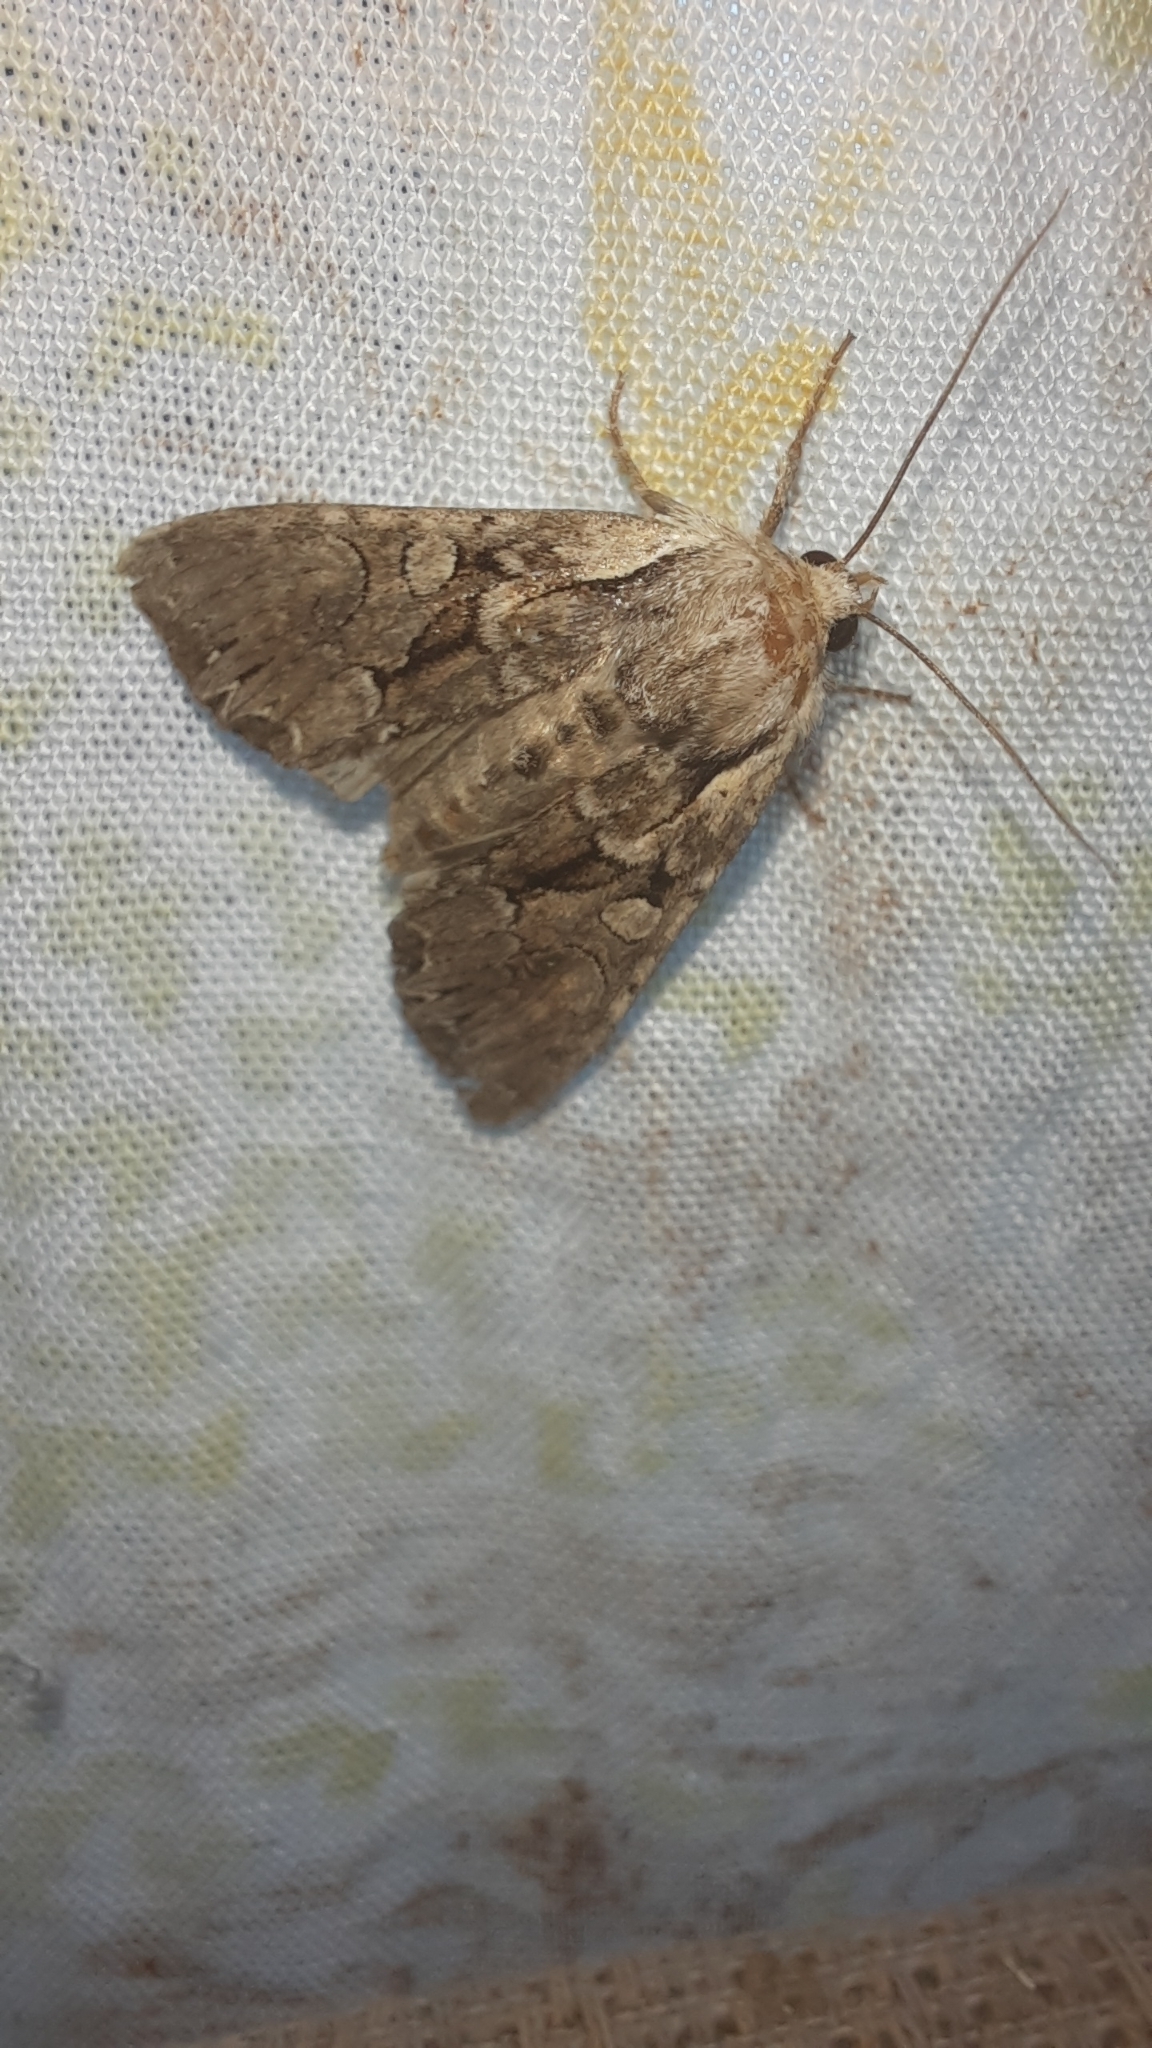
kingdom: Animalia
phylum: Arthropoda
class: Insecta
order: Lepidoptera
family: Noctuidae
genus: Lacanobia
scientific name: Lacanobia thalassina
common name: Pale-shouldered brocade
